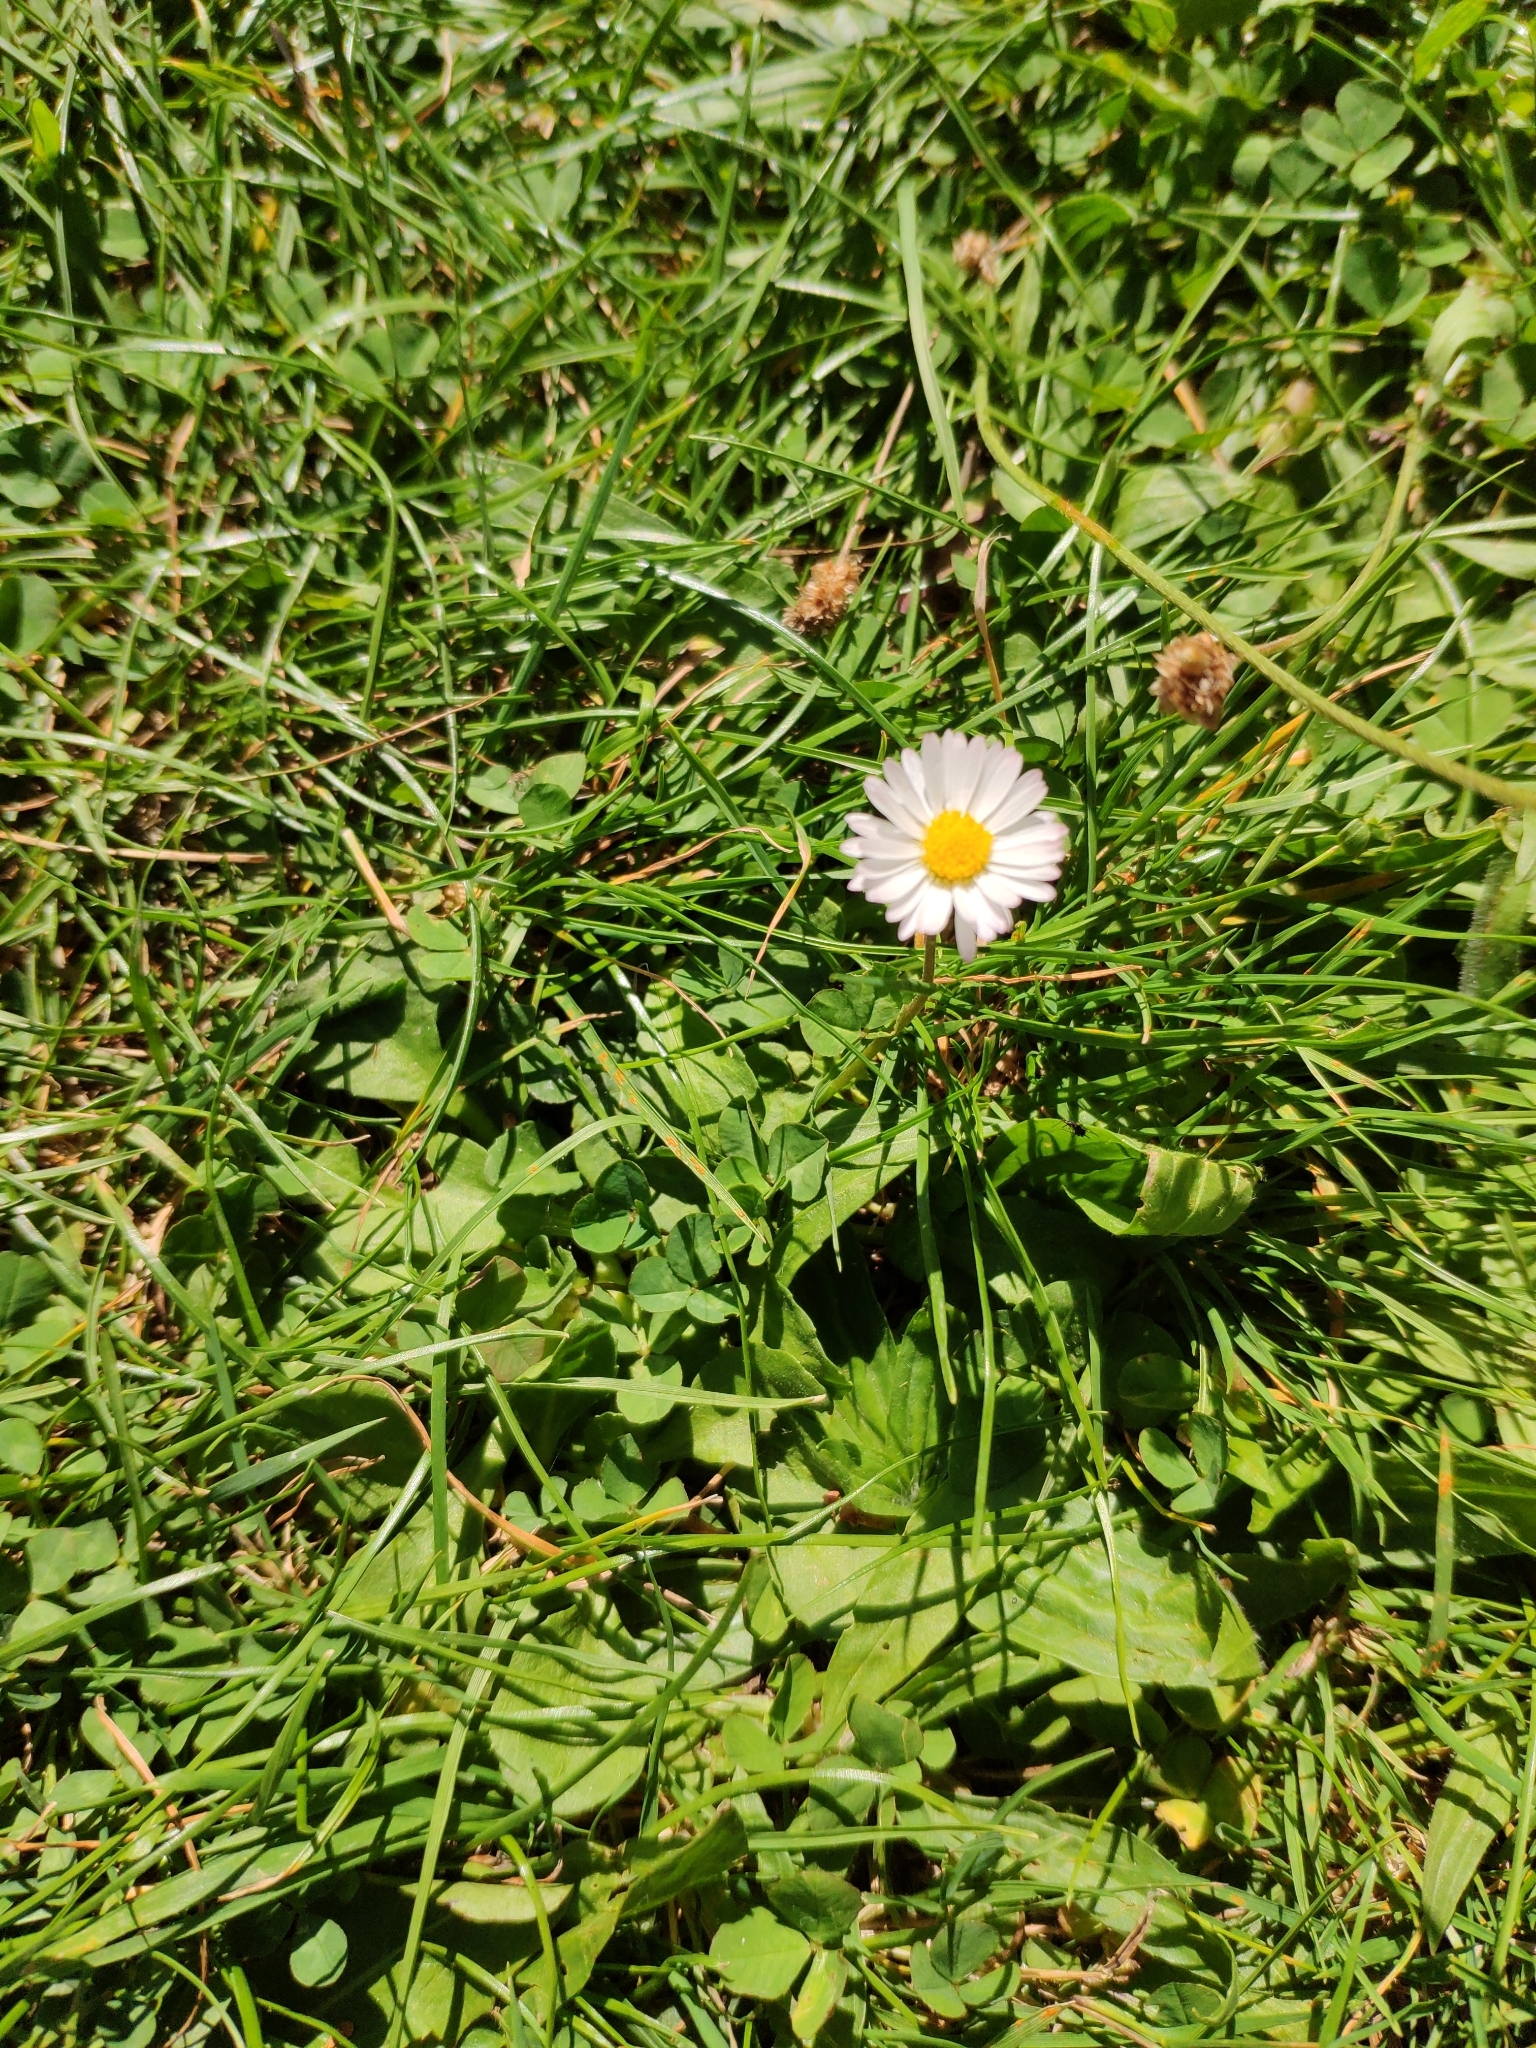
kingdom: Plantae
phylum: Tracheophyta
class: Magnoliopsida
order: Asterales
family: Asteraceae
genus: Bellis
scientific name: Bellis perennis
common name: Lawndaisy
